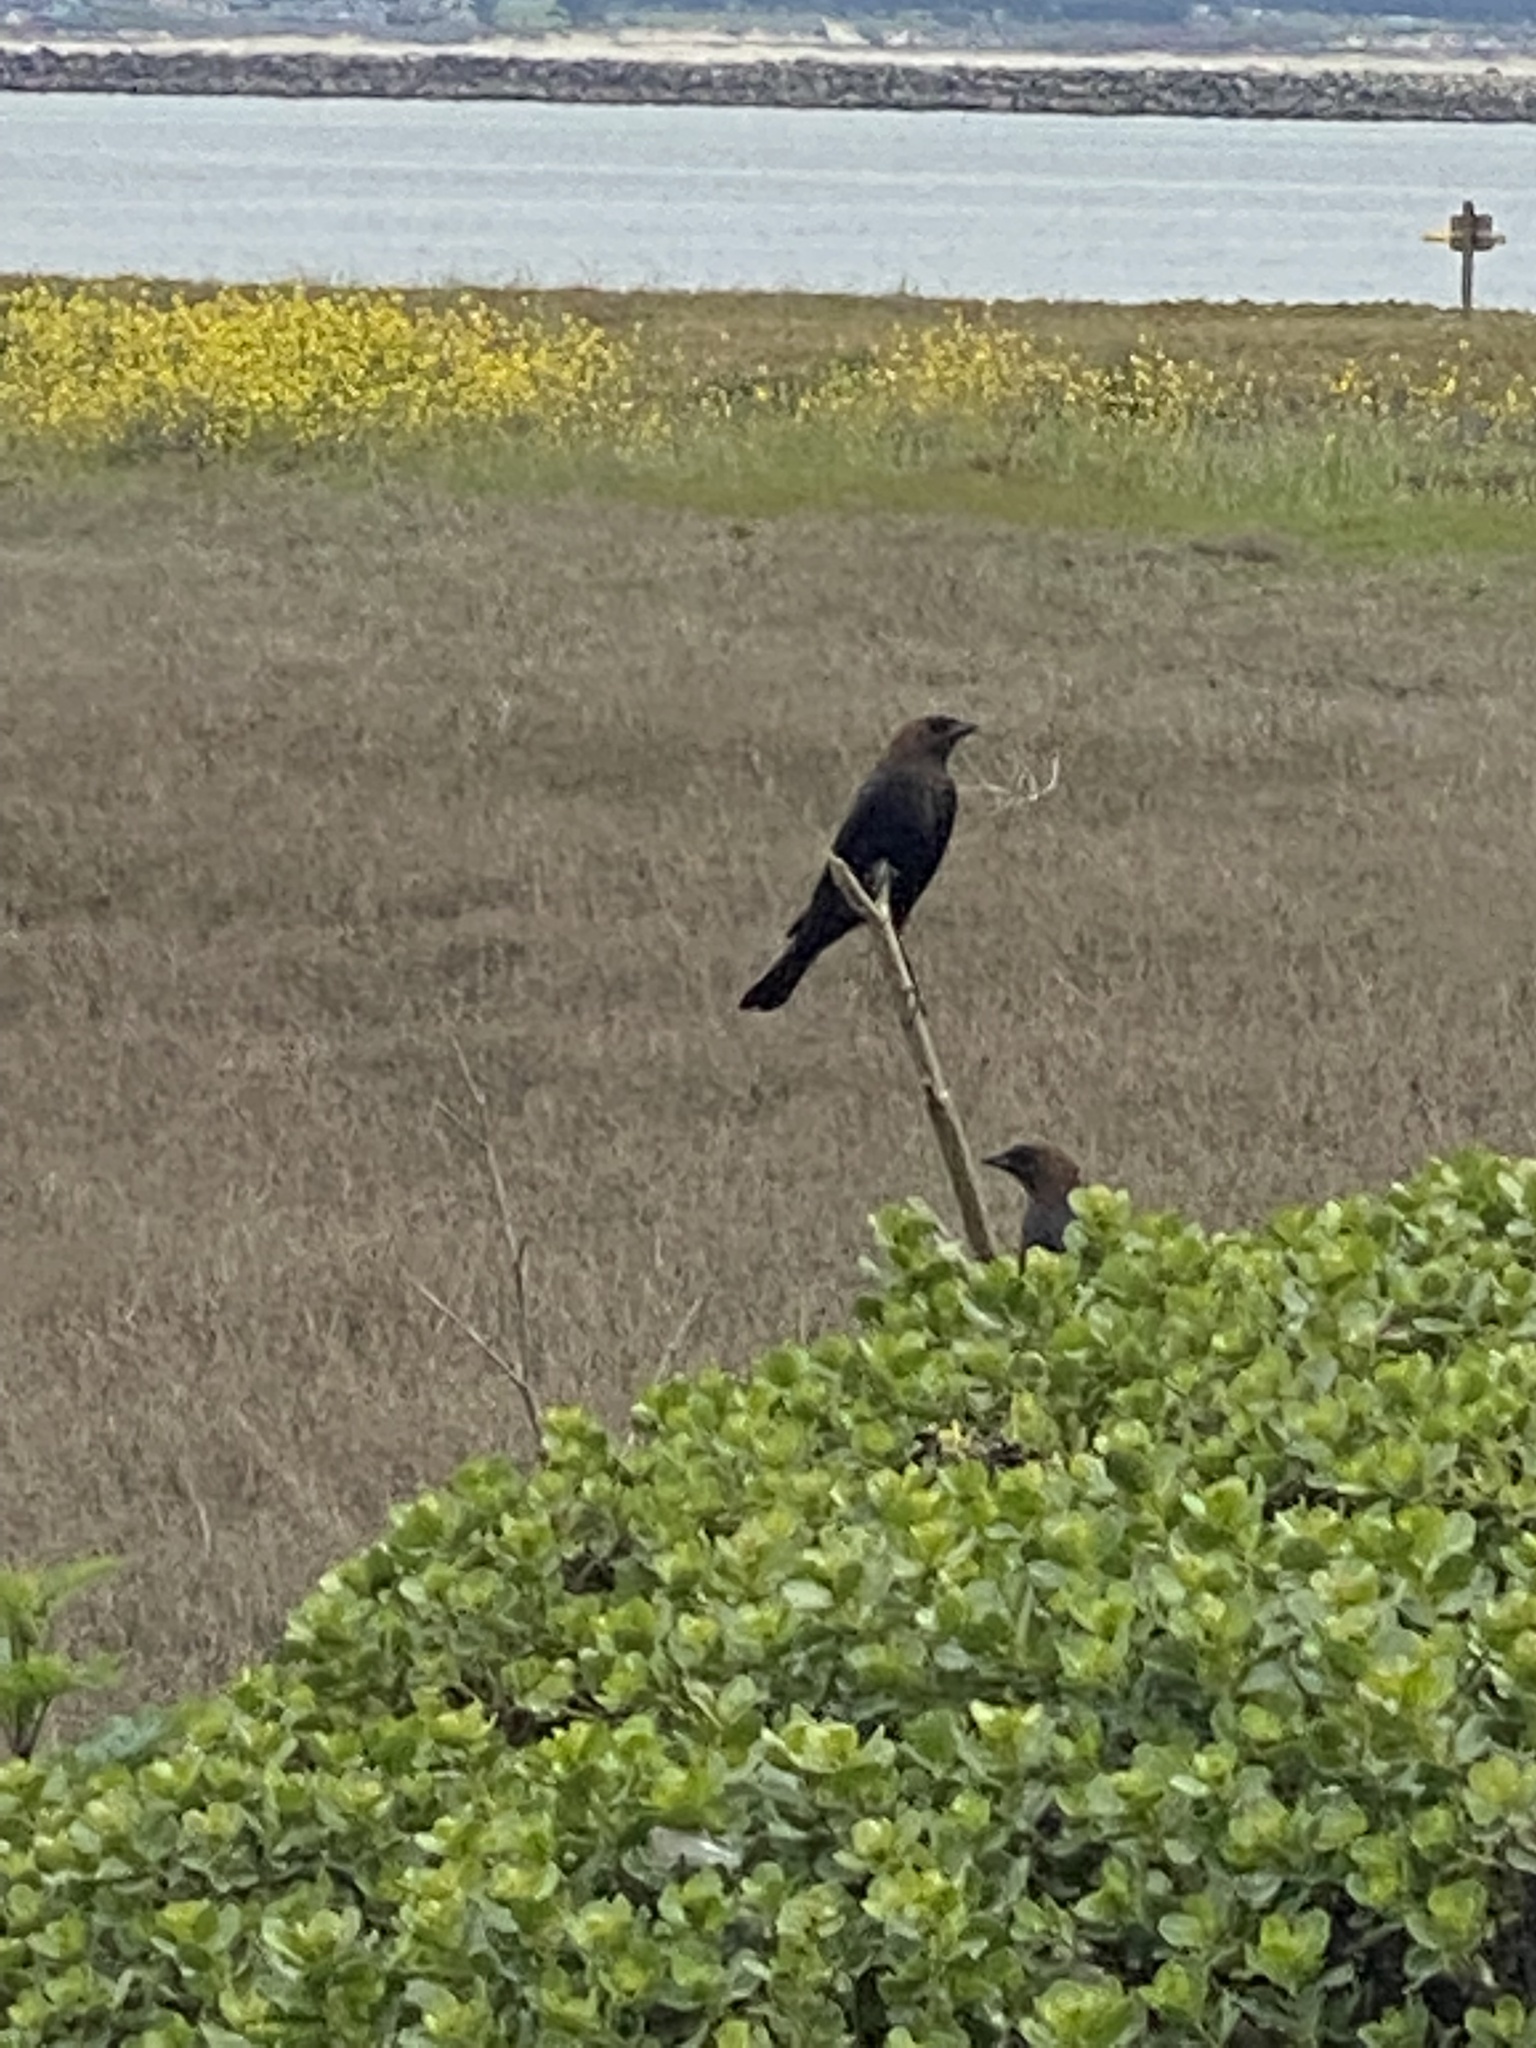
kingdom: Animalia
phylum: Chordata
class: Aves
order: Passeriformes
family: Icteridae
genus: Molothrus
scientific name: Molothrus ater
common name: Brown-headed cowbird
